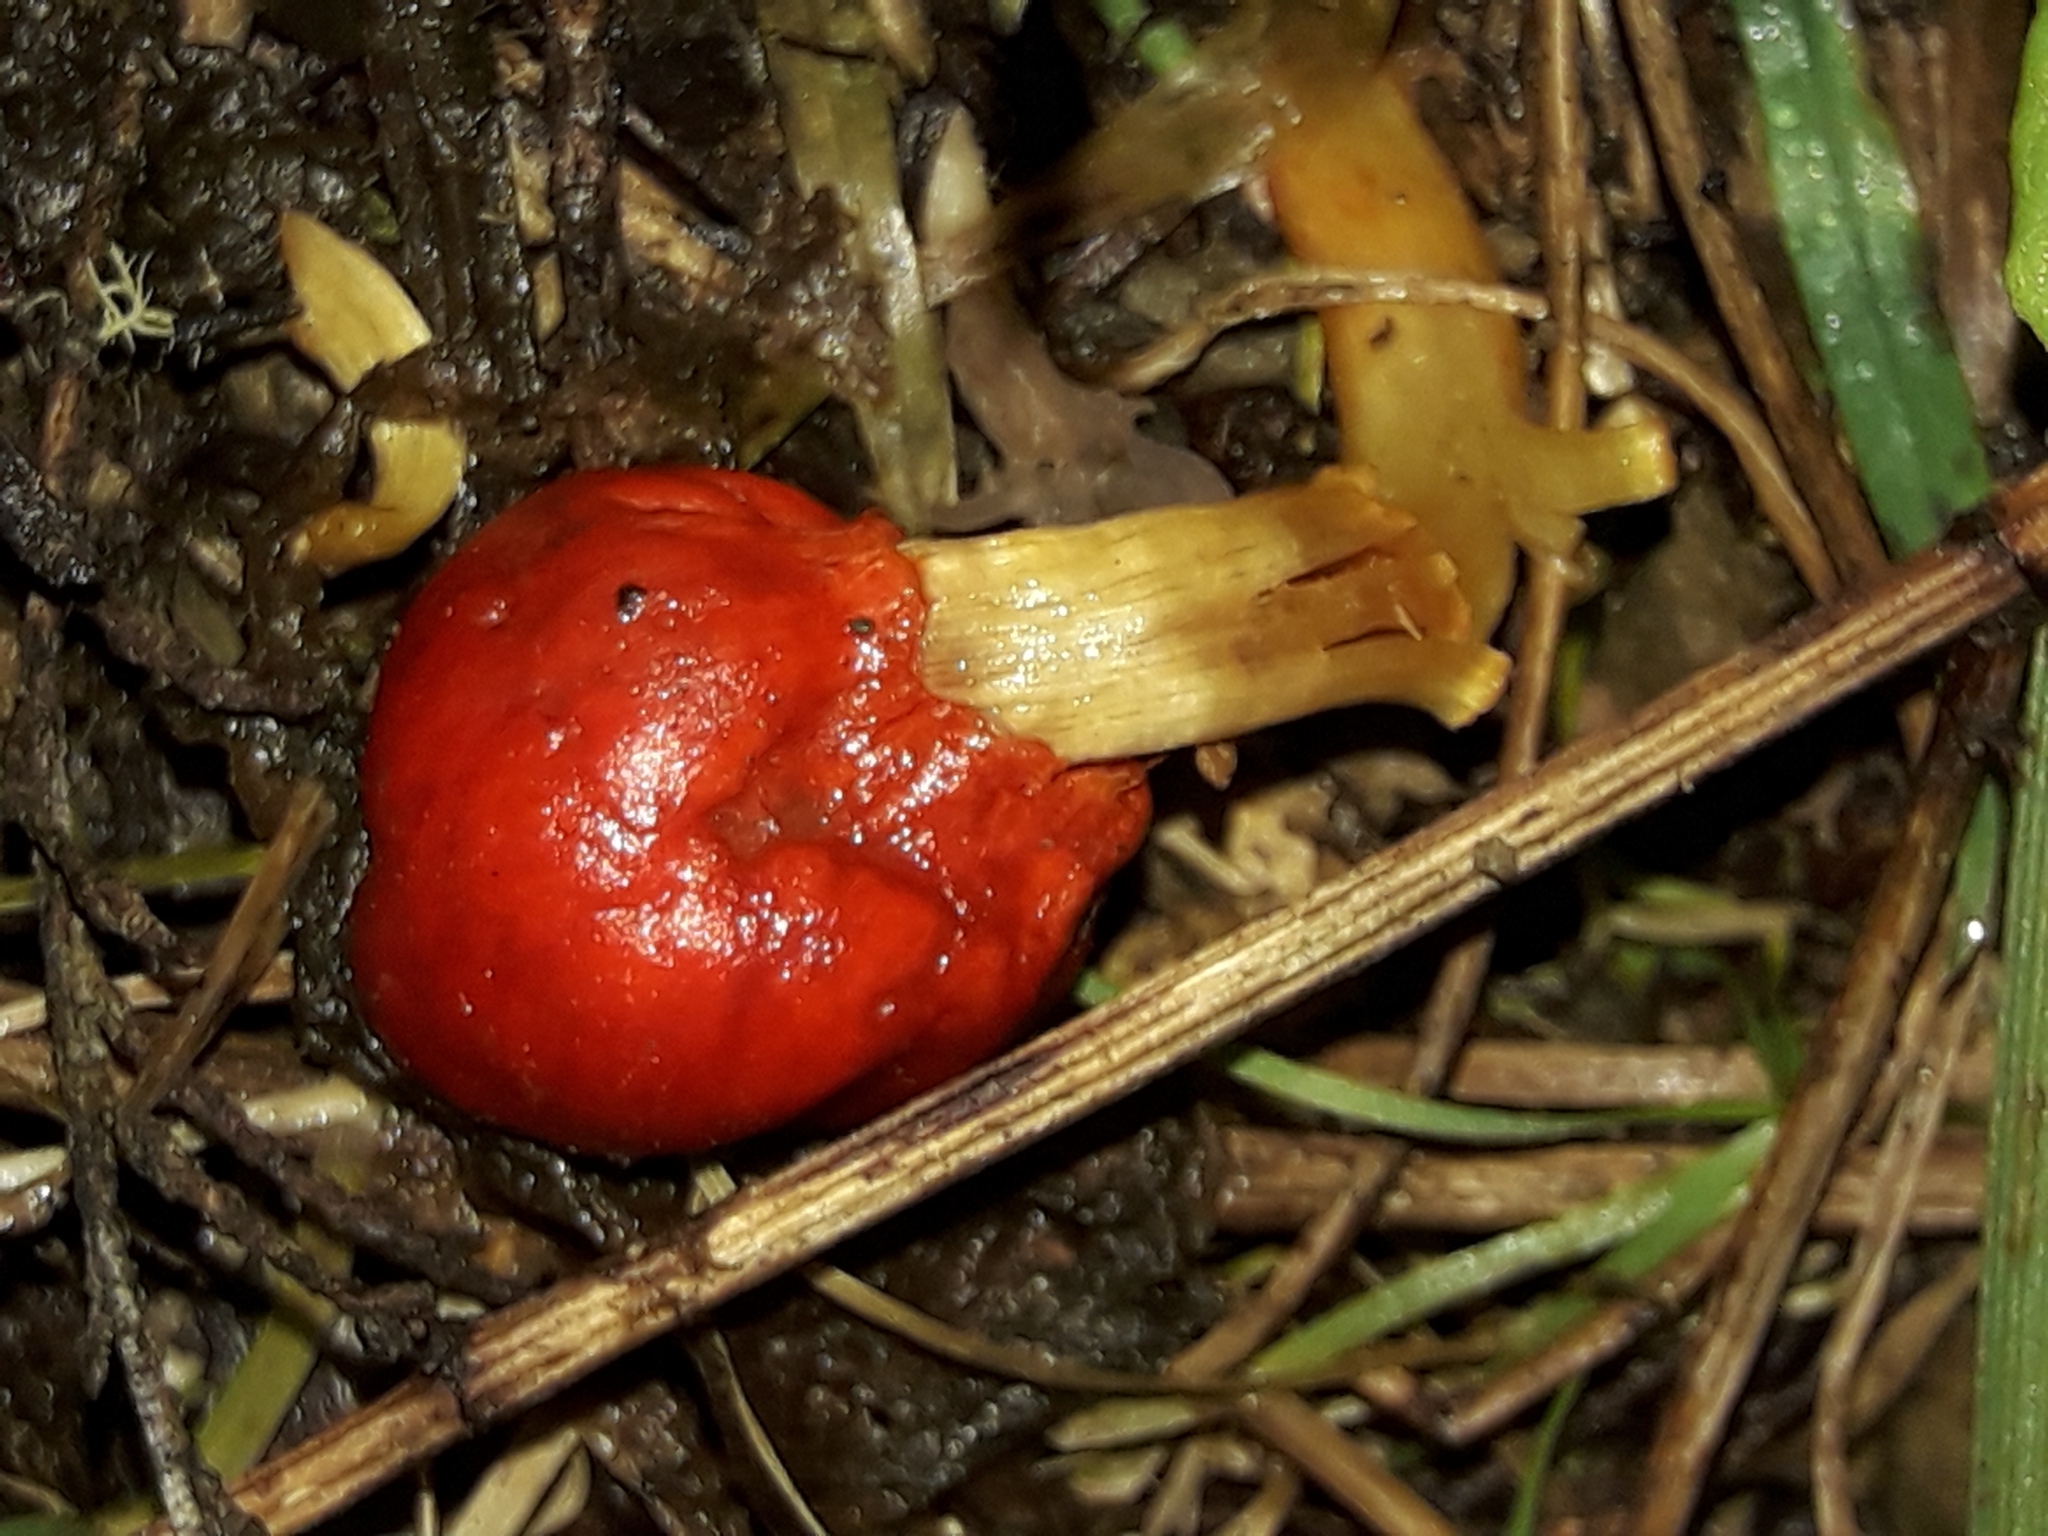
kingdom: Fungi
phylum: Basidiomycota
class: Agaricomycetes
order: Agaricales
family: Strophariaceae
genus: Leratiomyces
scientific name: Leratiomyces erythrocephalus
